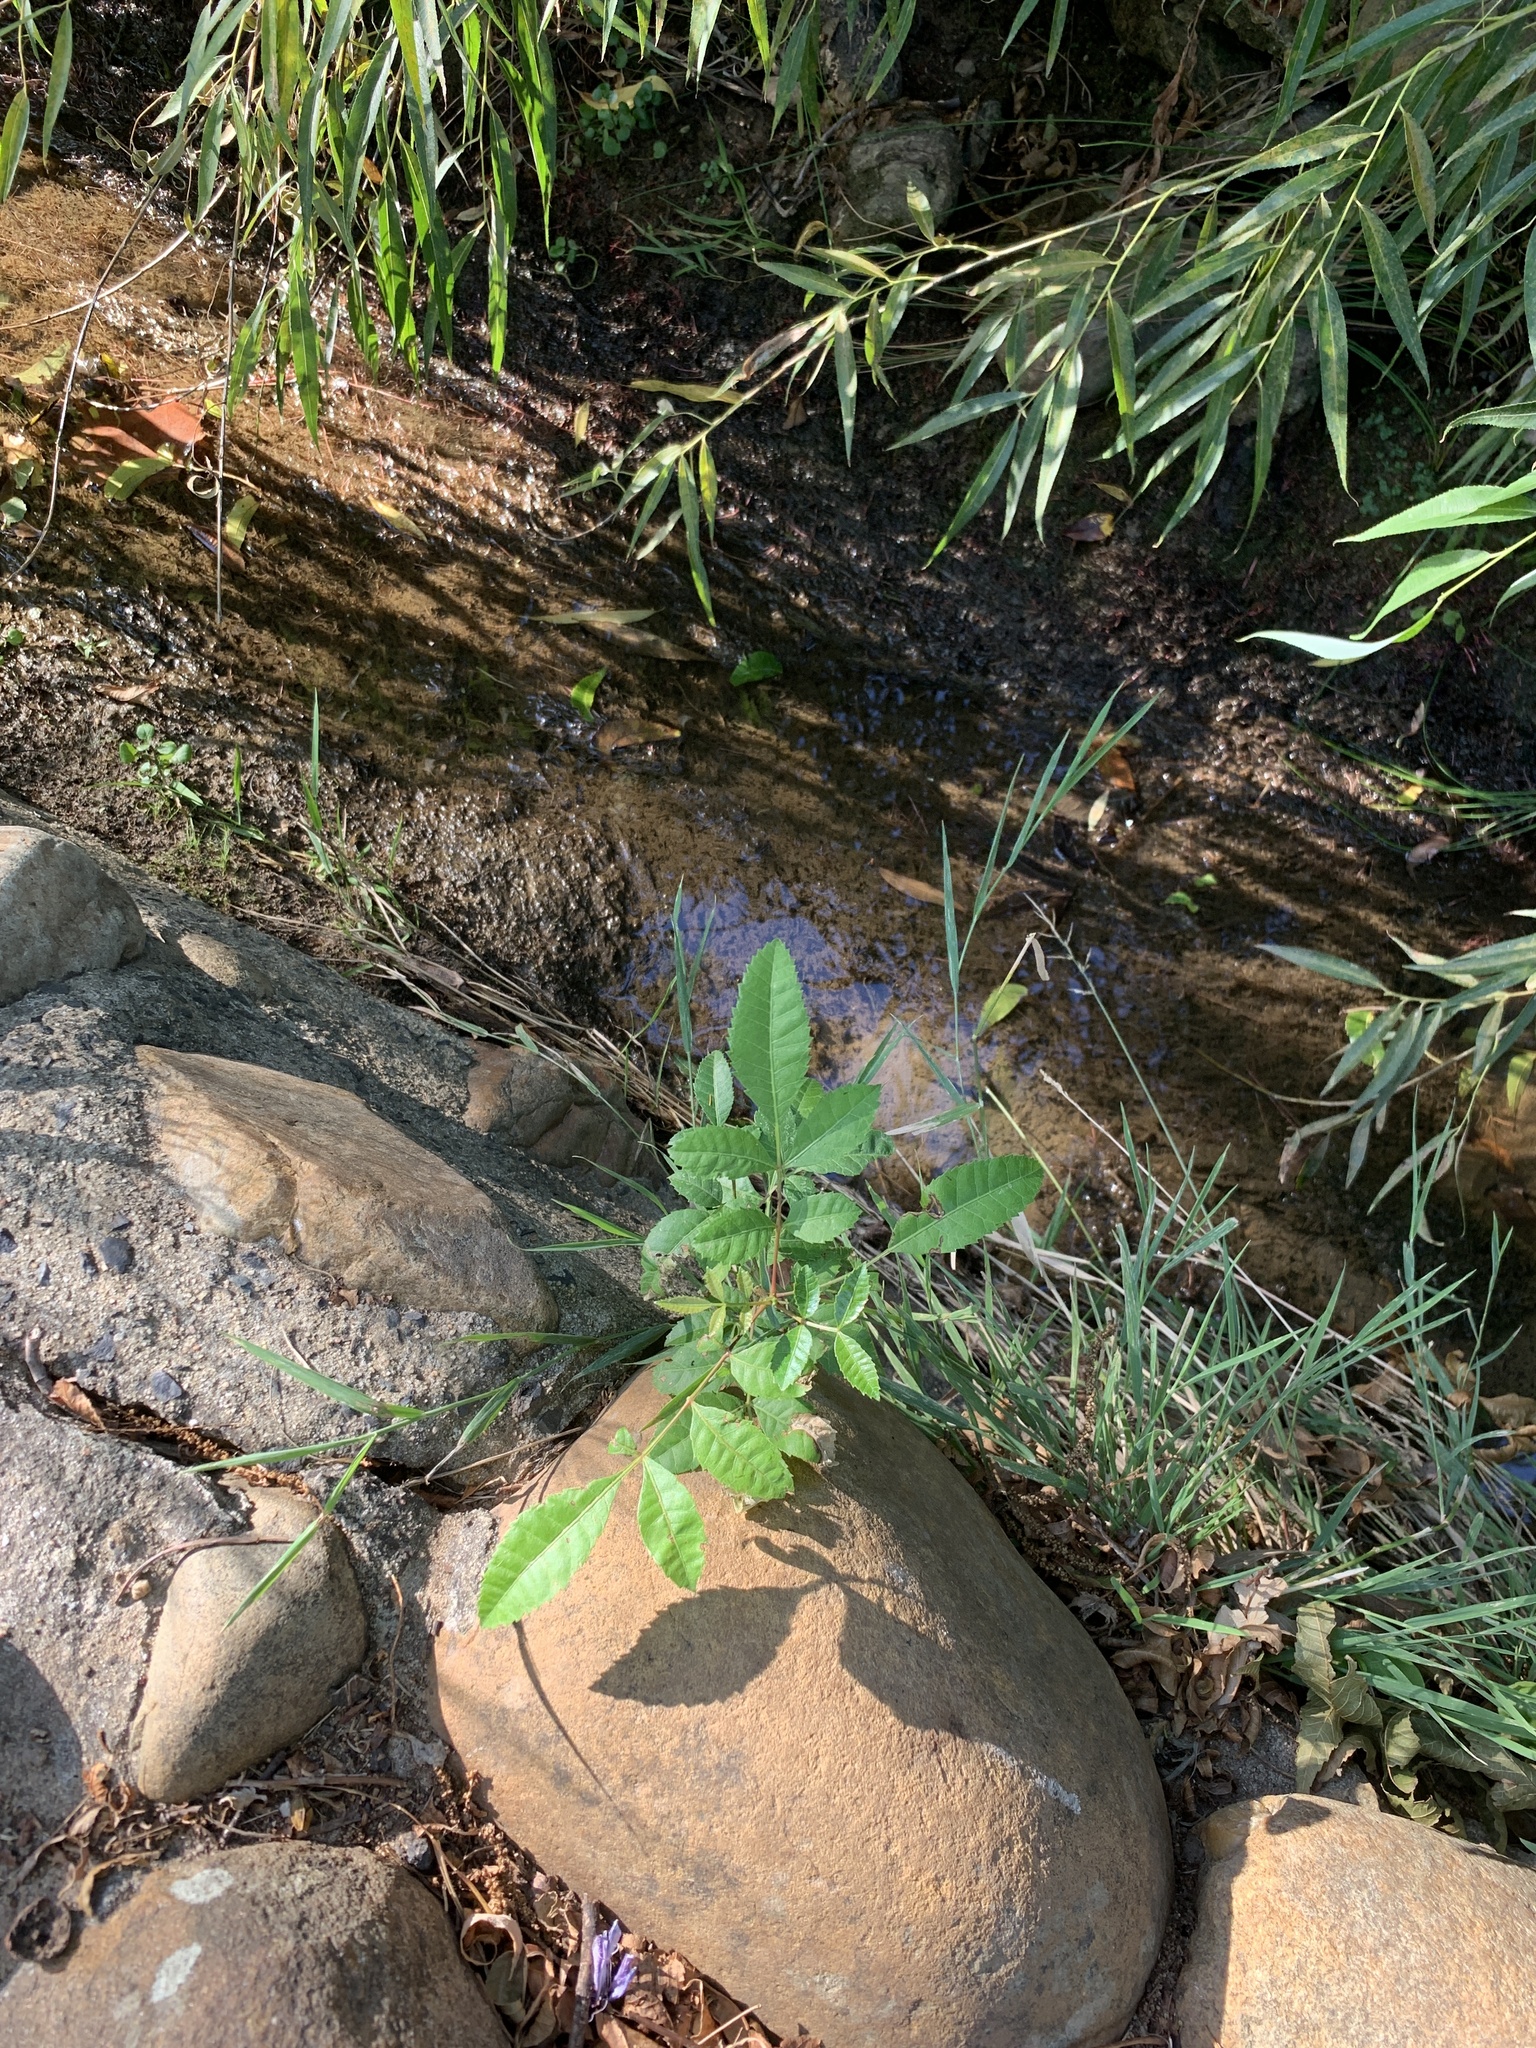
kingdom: Plantae
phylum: Tracheophyta
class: Magnoliopsida
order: Sapindales
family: Anacardiaceae
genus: Schinus
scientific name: Schinus terebinthifolia
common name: Brazilian peppertree
